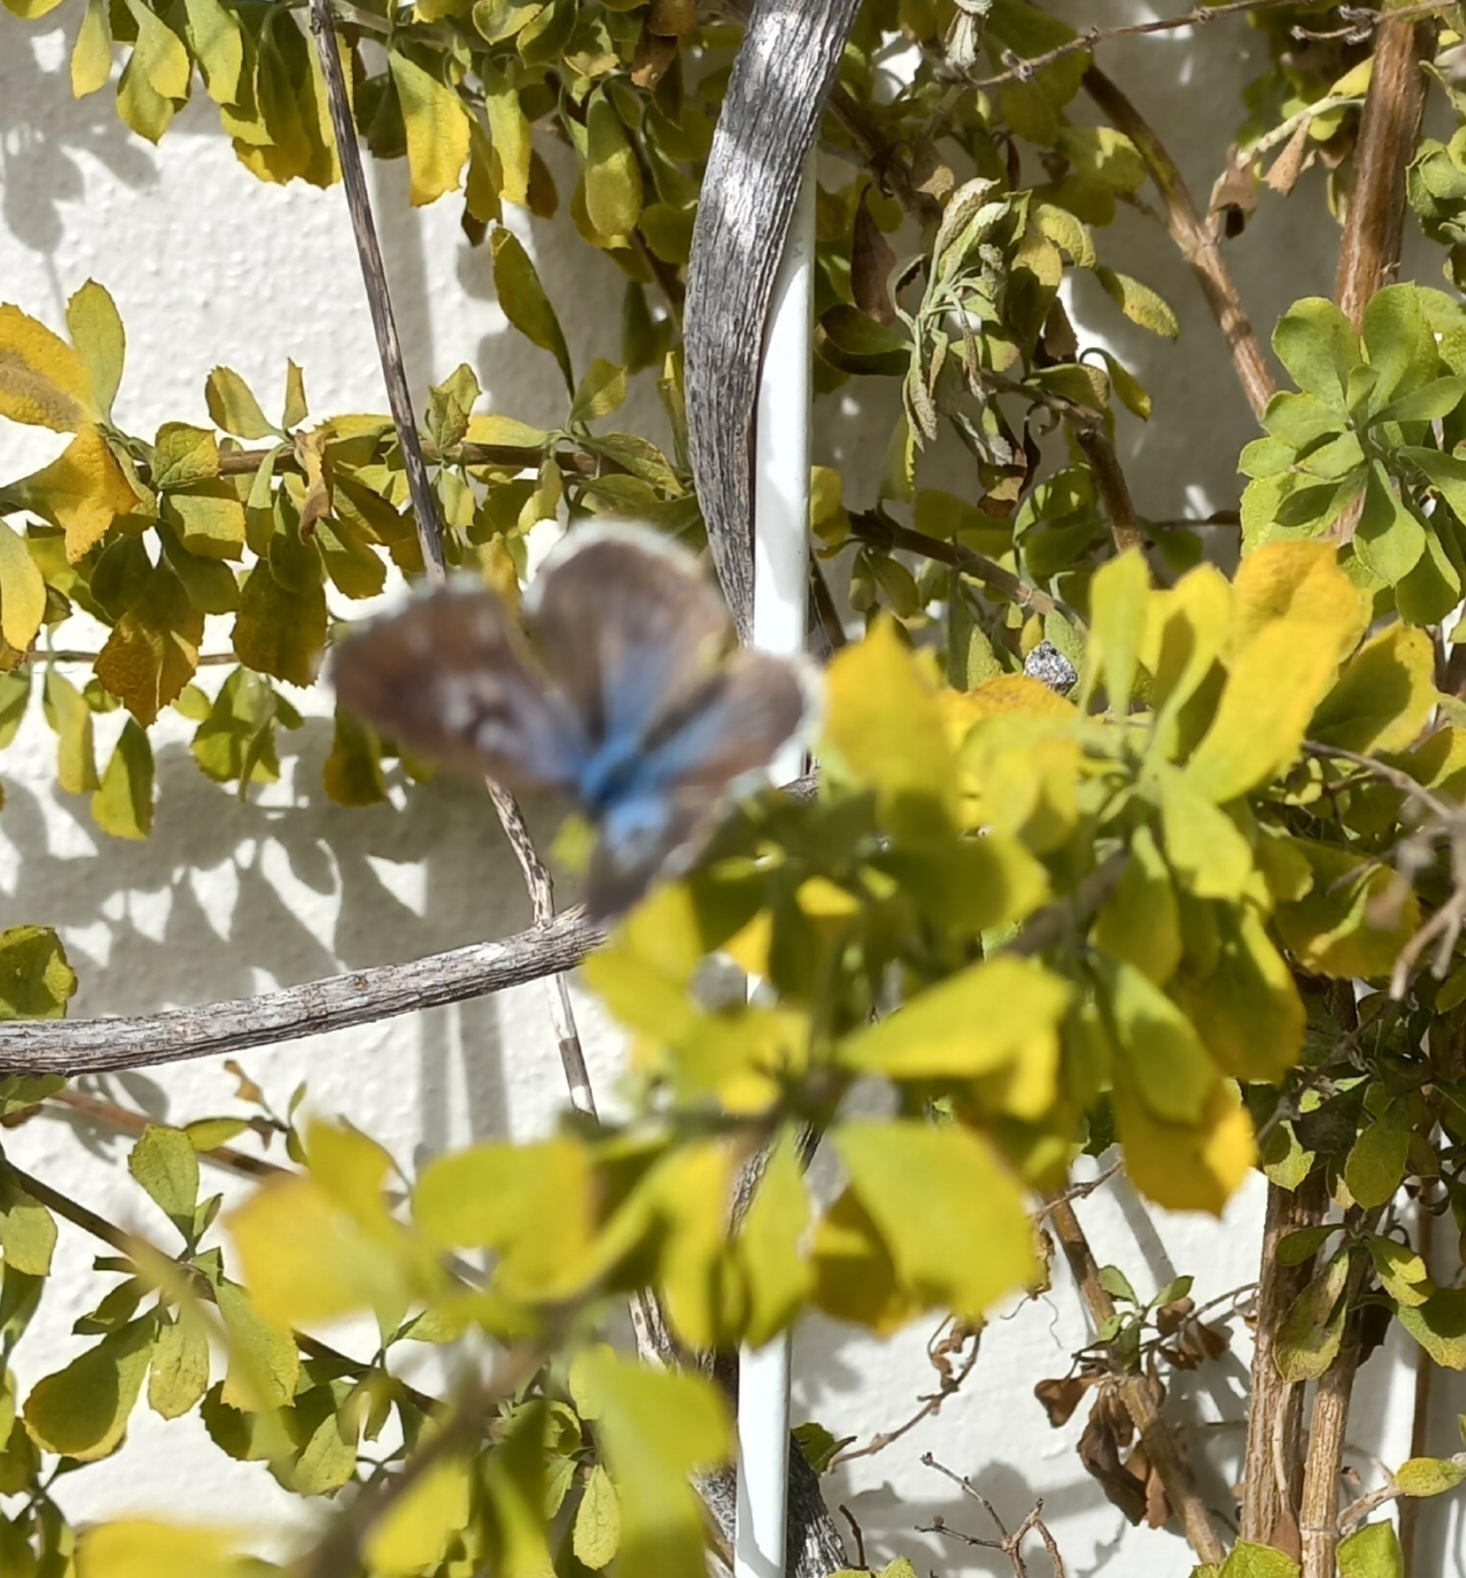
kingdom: Animalia
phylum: Arthropoda
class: Insecta
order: Lepidoptera
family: Lycaenidae
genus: Cacyreus
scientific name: Cacyreus lingeus
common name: Bush bronze
